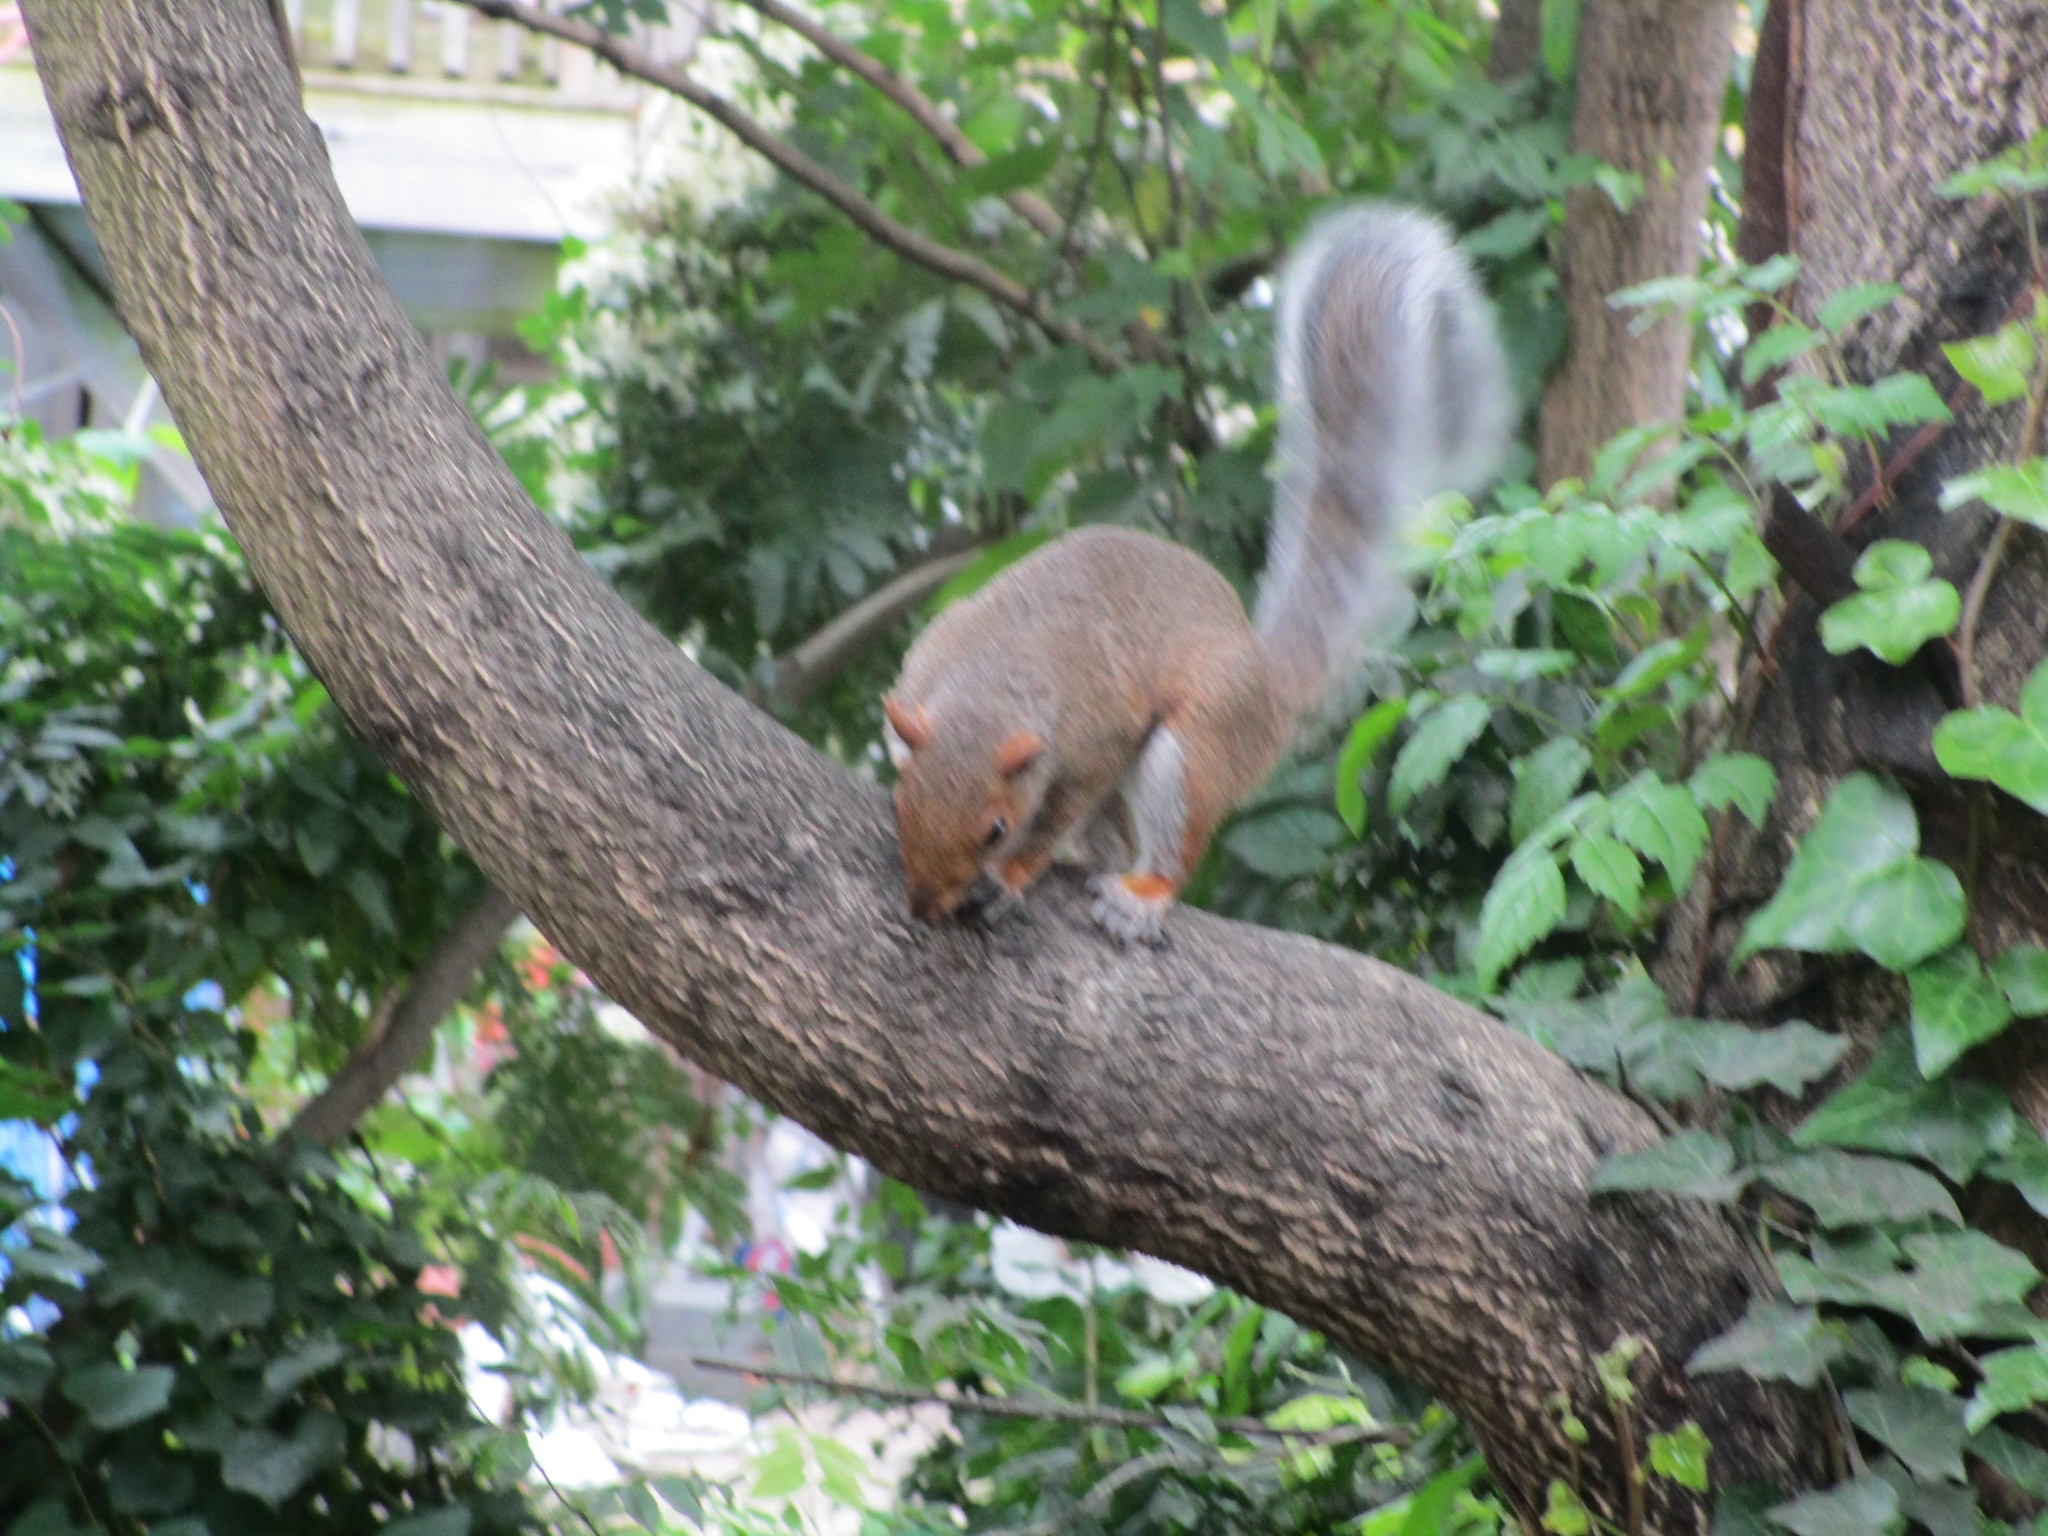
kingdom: Animalia
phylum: Chordata
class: Mammalia
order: Rodentia
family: Sciuridae
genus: Sciurus
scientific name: Sciurus carolinensis
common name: Eastern gray squirrel
